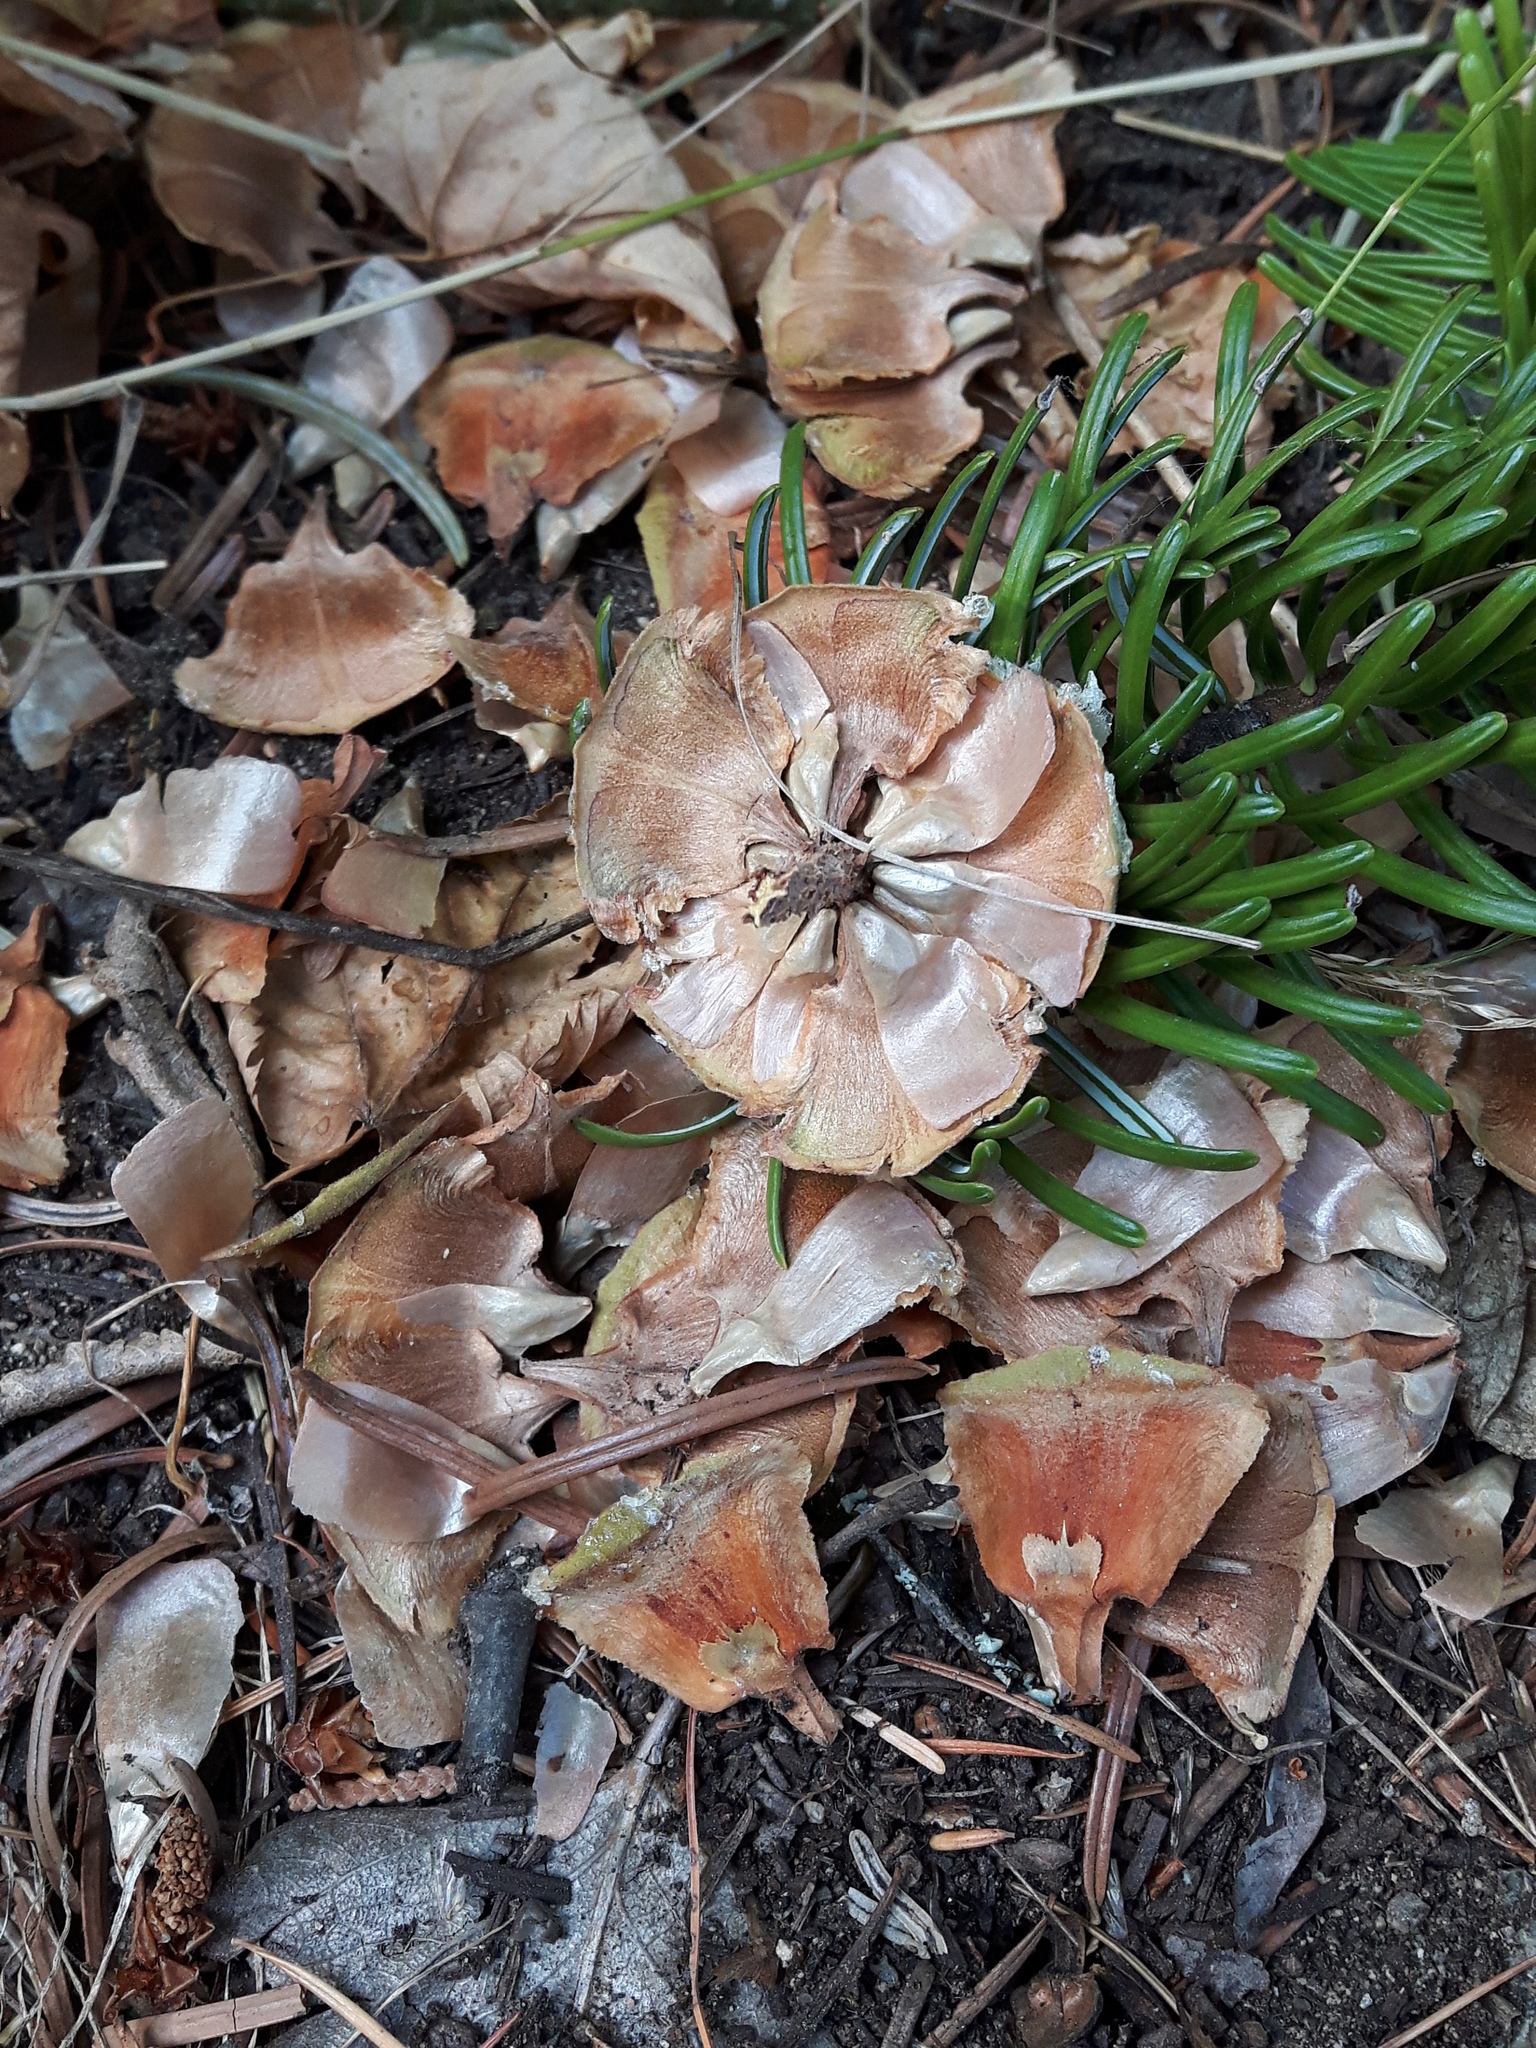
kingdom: Plantae
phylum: Tracheophyta
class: Pinopsida
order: Pinales
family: Pinaceae
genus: Abies
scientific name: Abies grandis
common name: Giant fir
